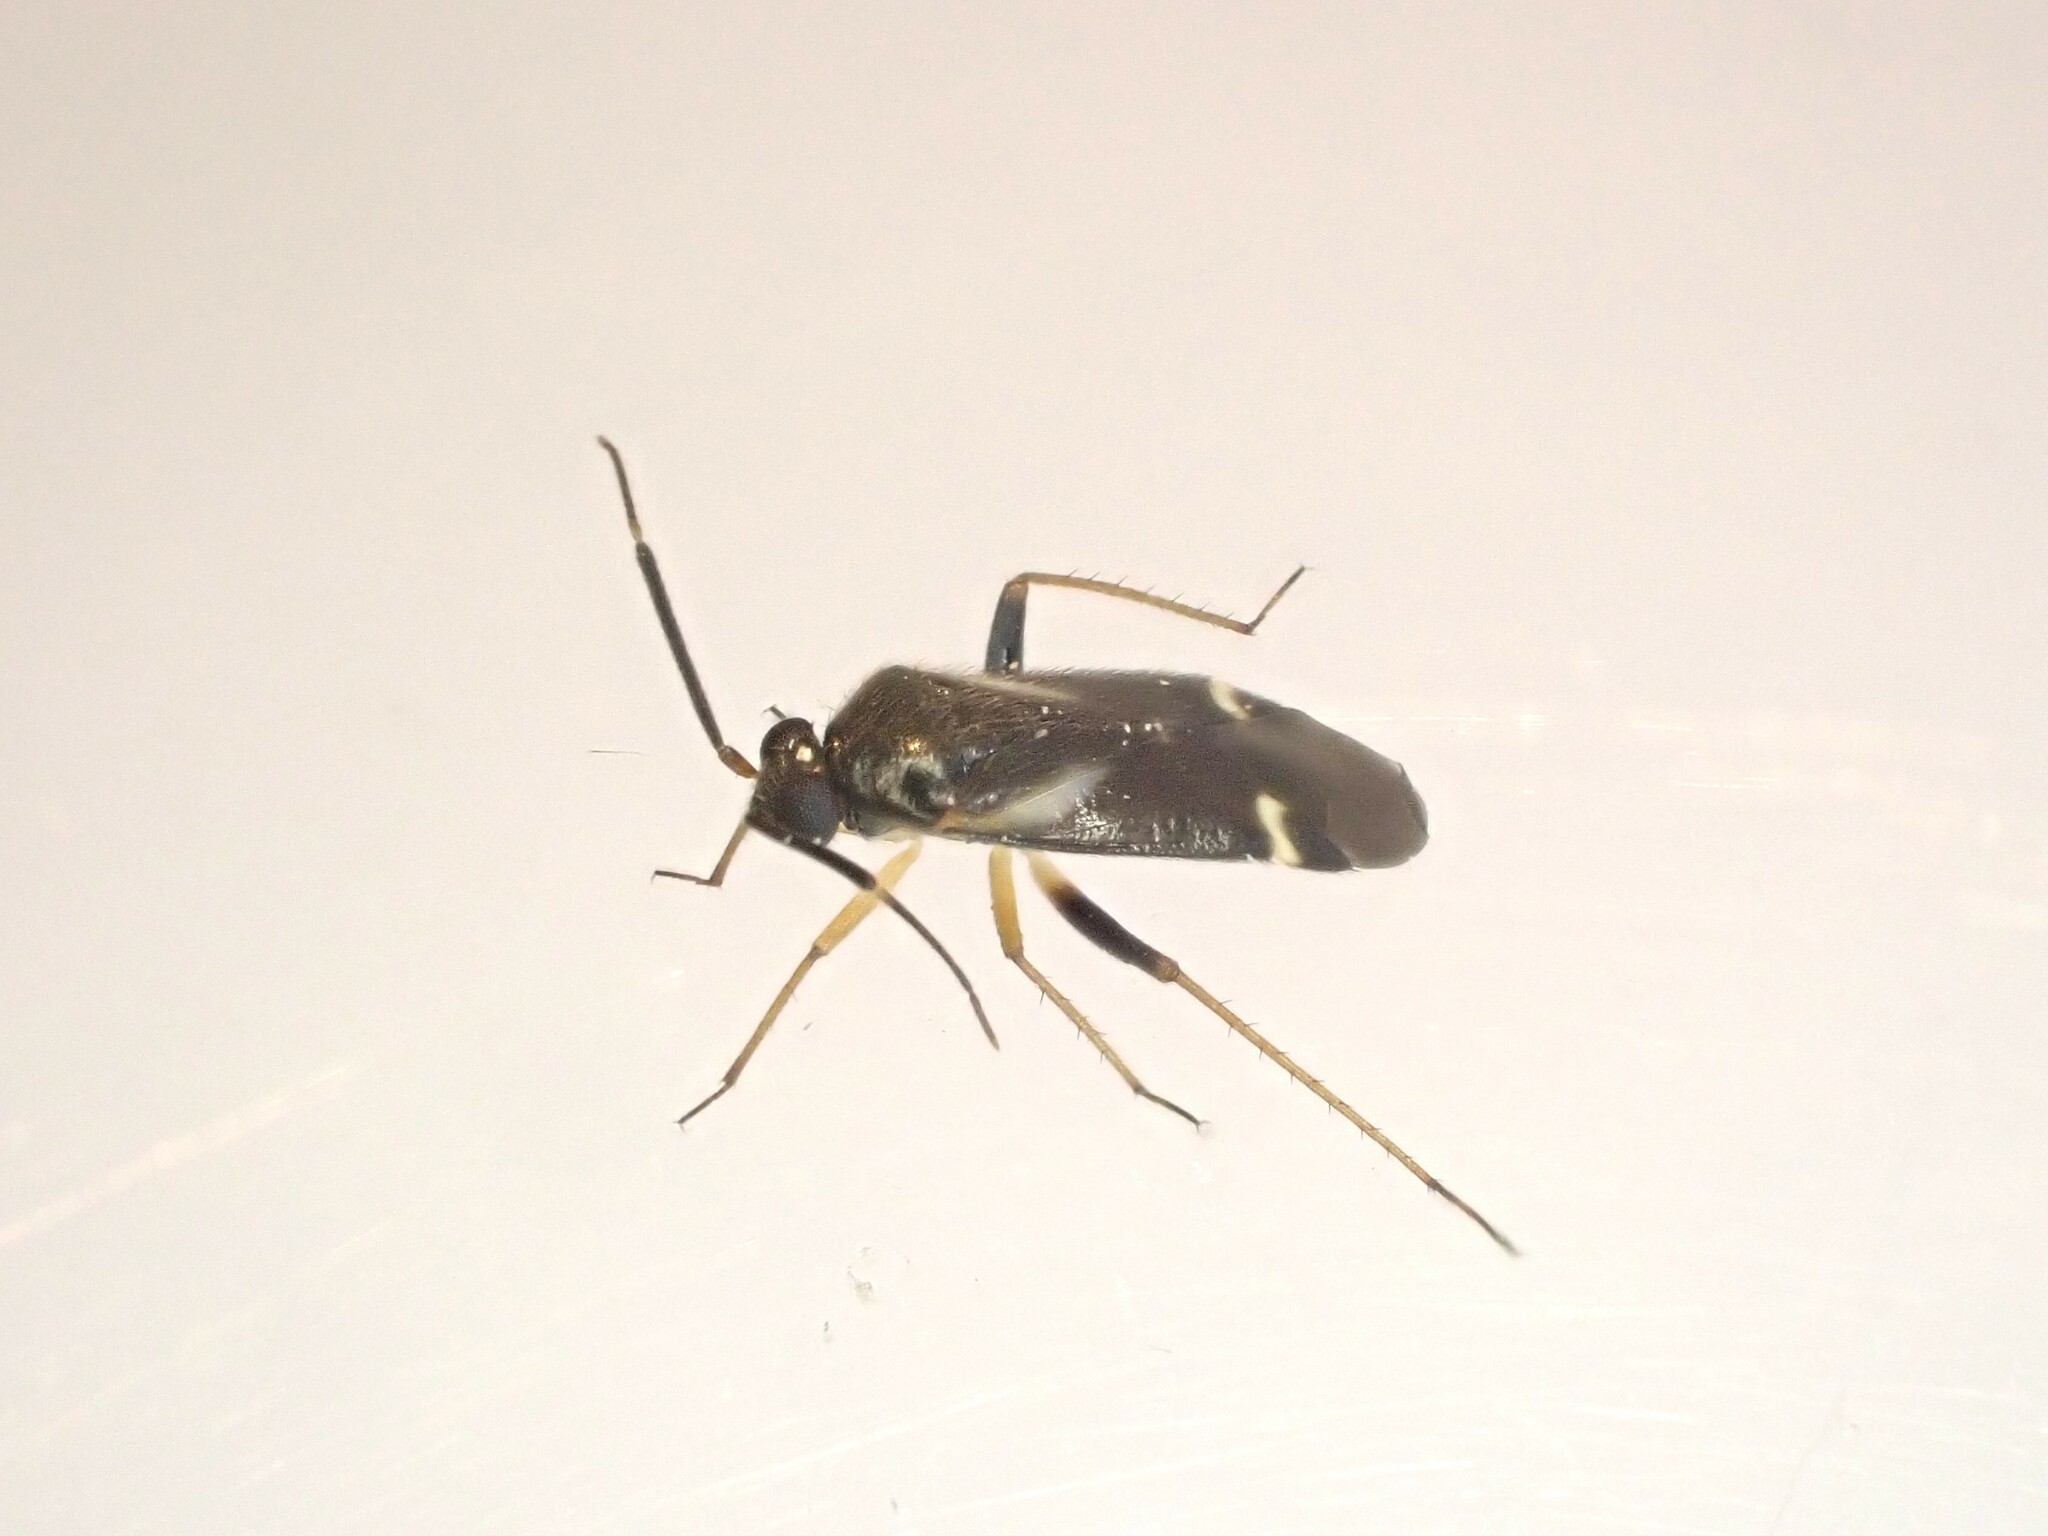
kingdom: Animalia
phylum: Arthropoda
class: Insecta
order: Hemiptera
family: Miridae
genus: Ausejanus
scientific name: Ausejanus albisignatus
